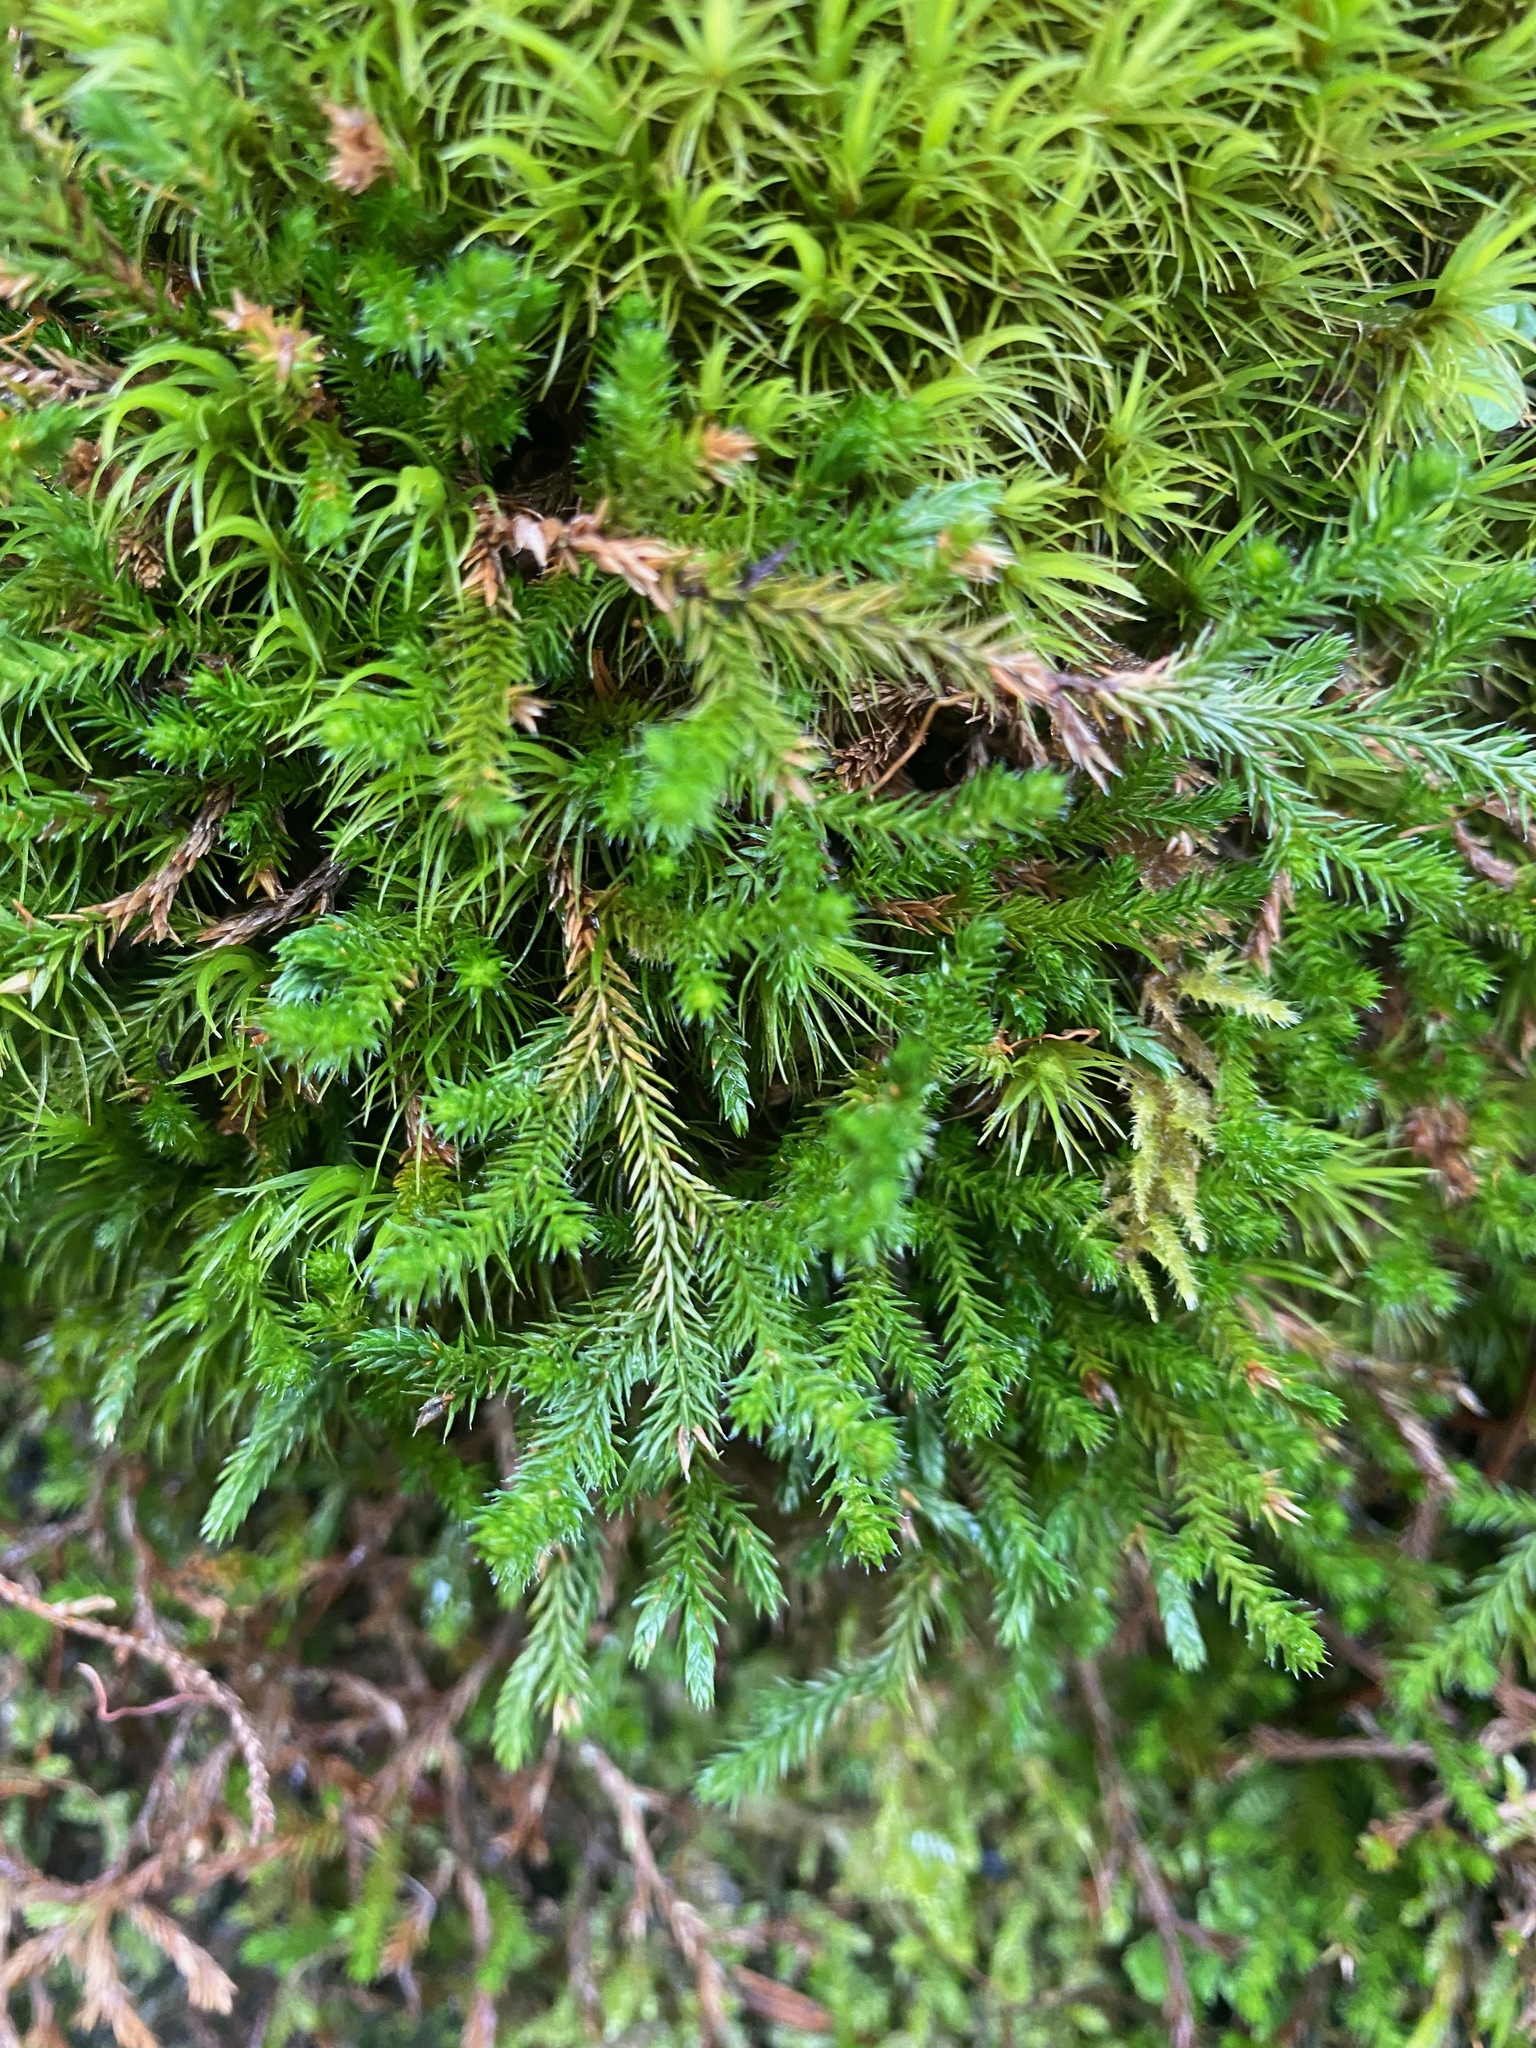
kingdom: Plantae
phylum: Tracheophyta
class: Lycopodiopsida
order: Selaginellales
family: Selaginellaceae
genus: Selaginella
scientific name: Selaginella wallacei
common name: Wallace's selaginella
